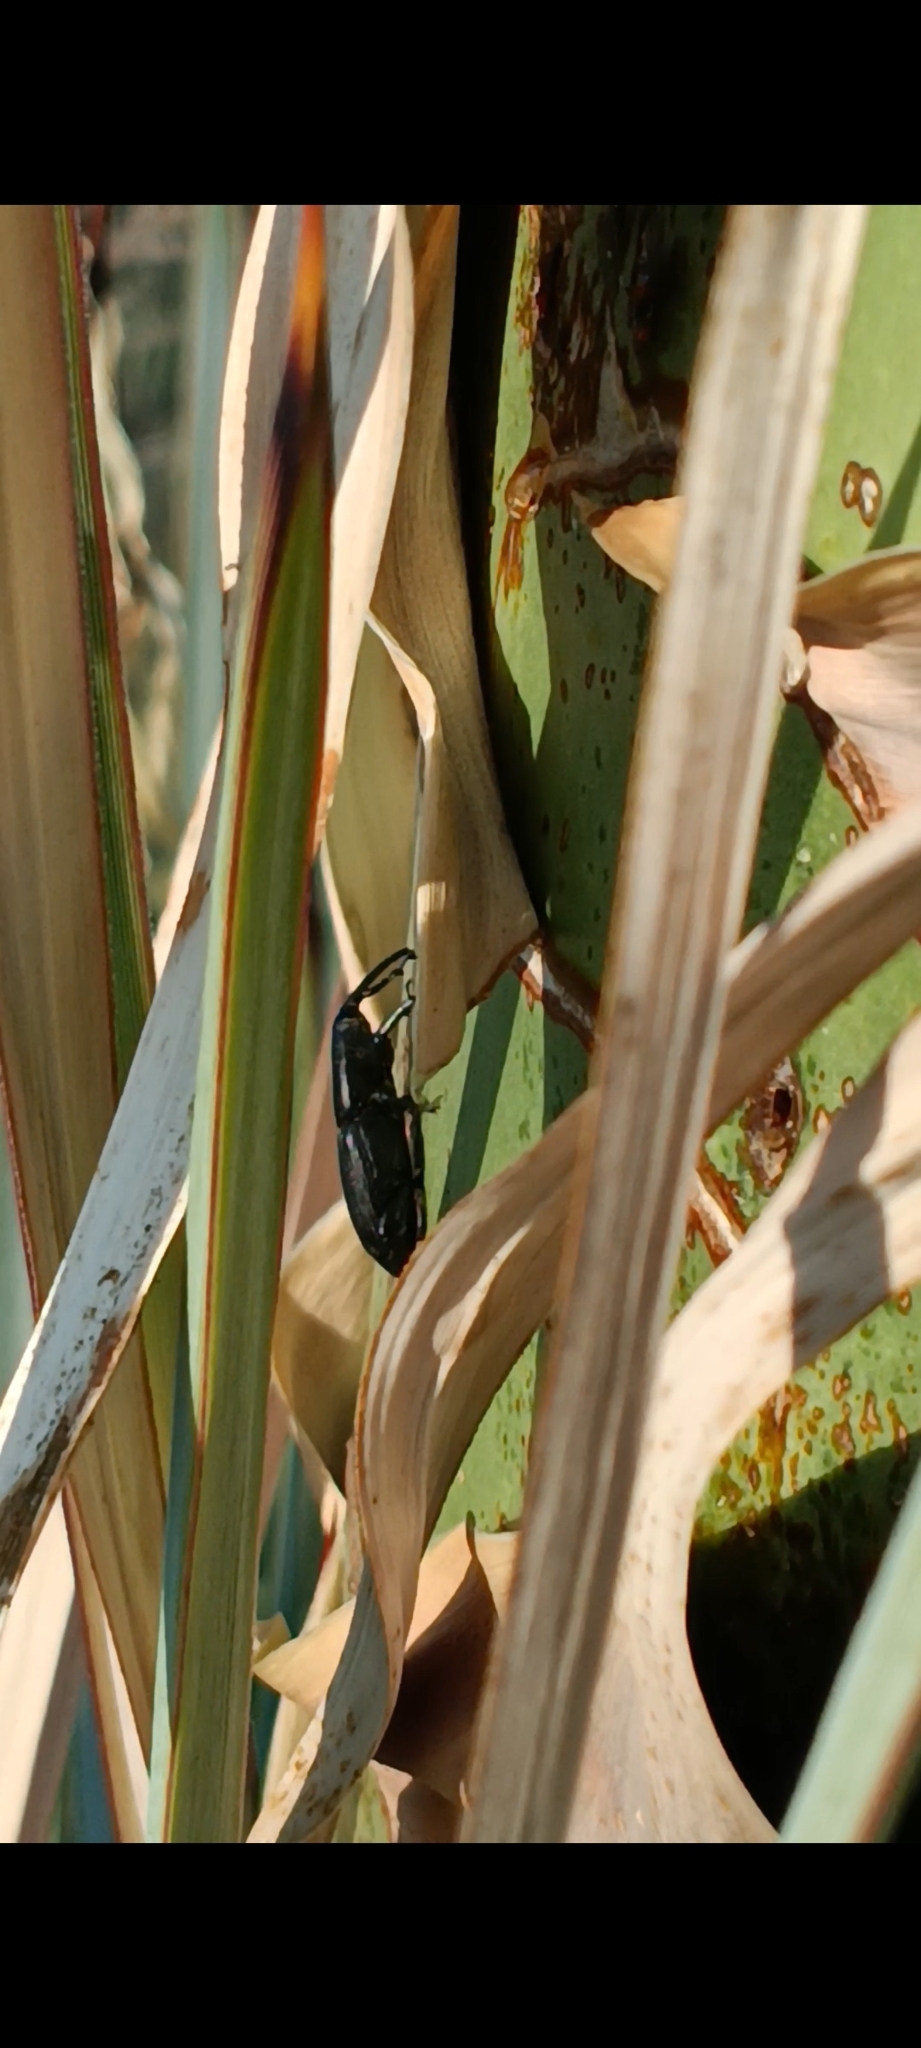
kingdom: Animalia
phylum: Arthropoda
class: Insecta
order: Coleoptera
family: Dryophthoridae
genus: Scyphophorus
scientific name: Scyphophorus yuccae
